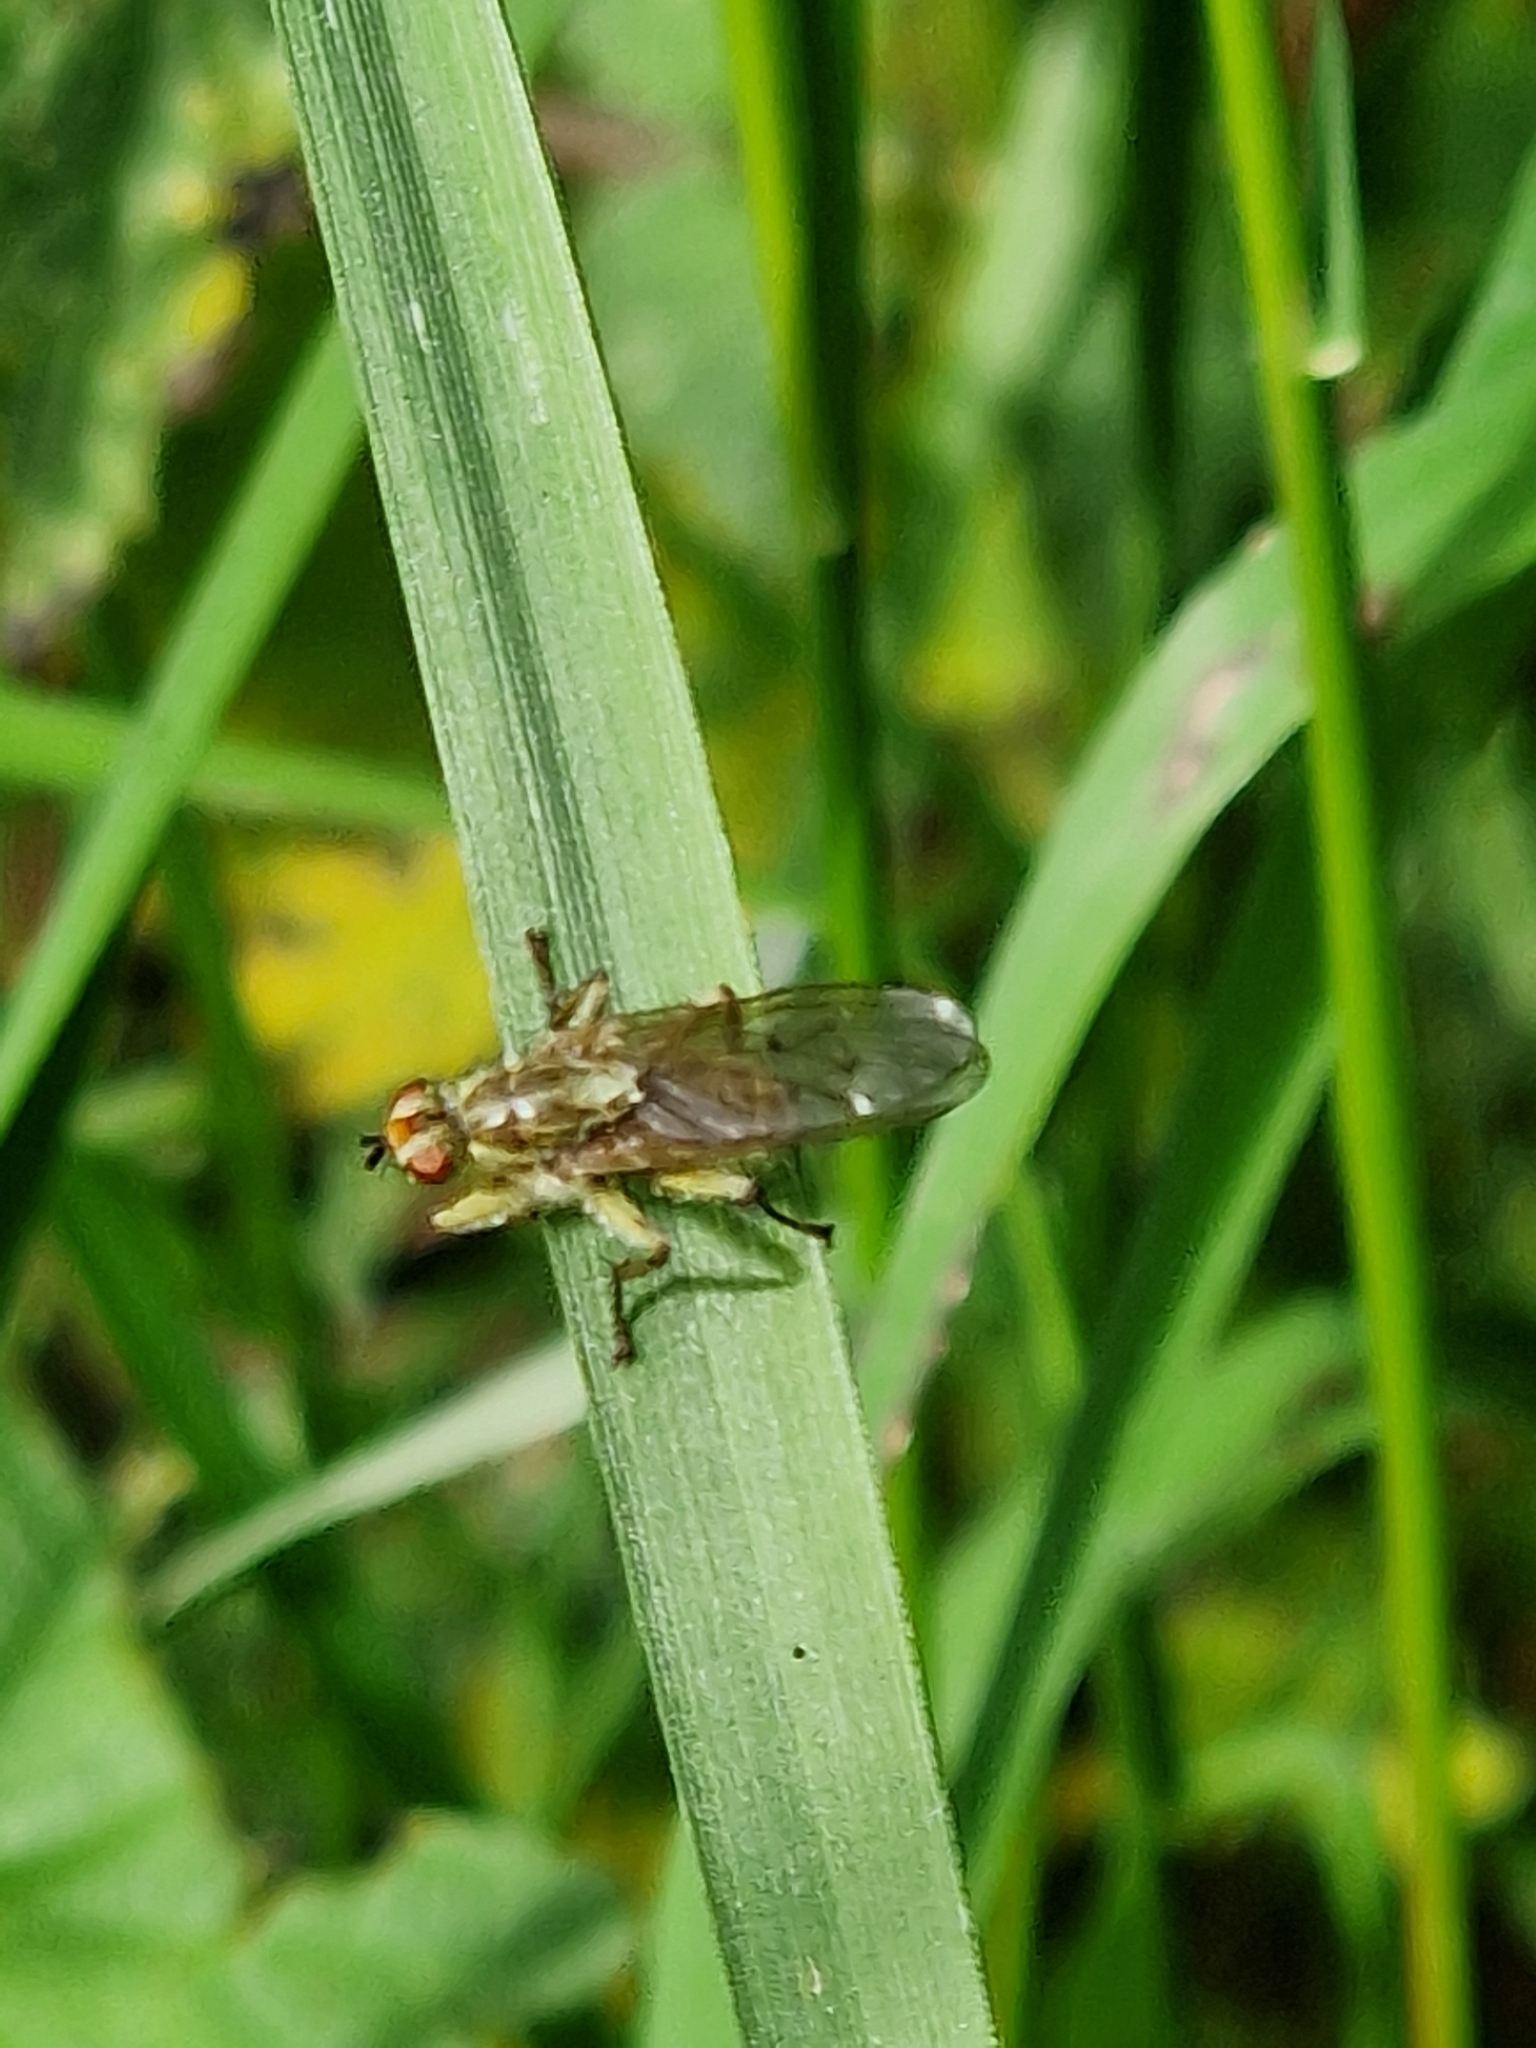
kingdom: Animalia
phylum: Arthropoda
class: Insecta
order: Diptera
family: Scathophagidae
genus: Scathophaga
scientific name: Scathophaga stercoraria
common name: Yellow dung fly
